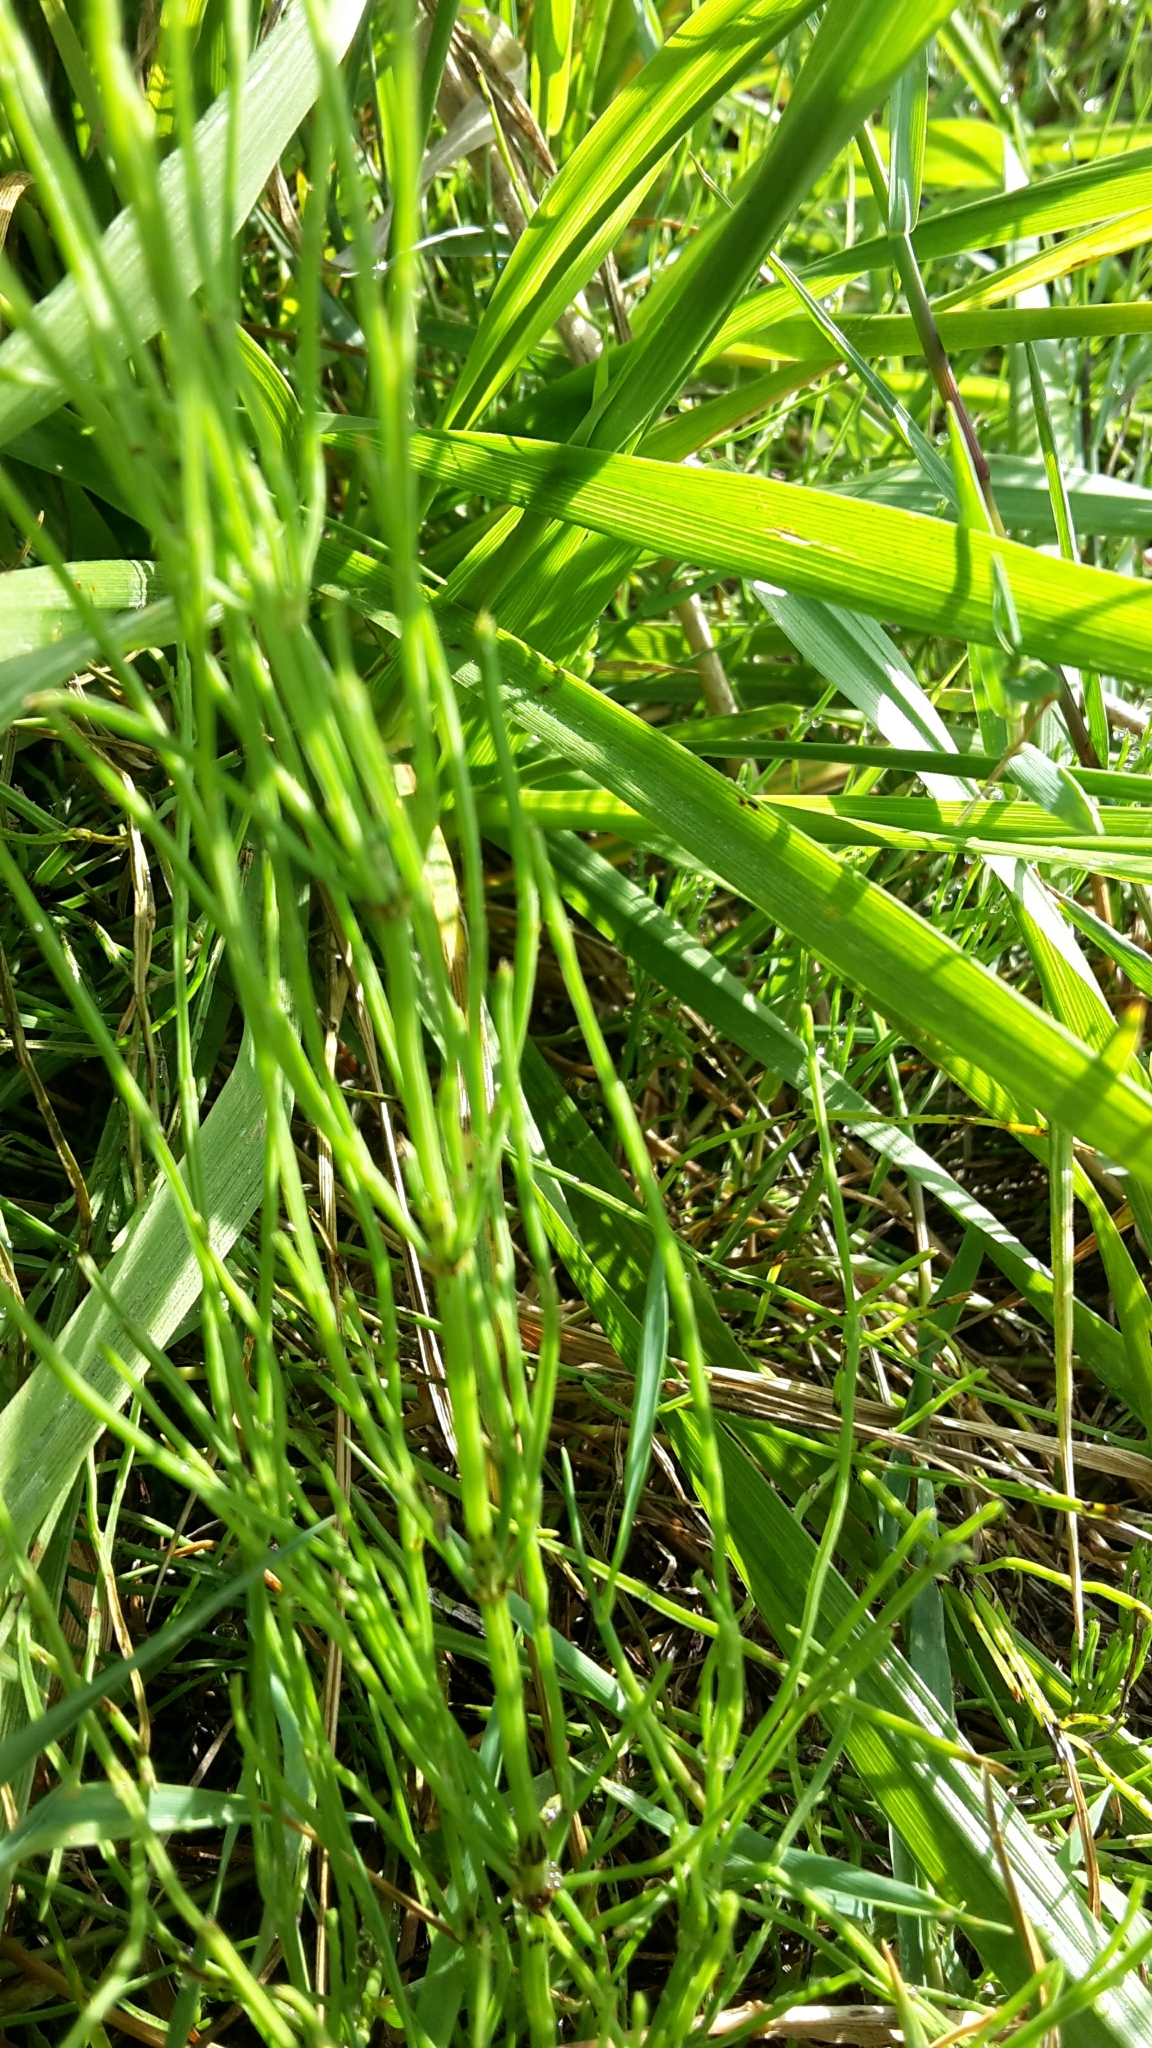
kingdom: Plantae
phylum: Tracheophyta
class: Polypodiopsida
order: Equisetales
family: Equisetaceae
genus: Equisetum
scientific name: Equisetum arvense
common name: Field horsetail
